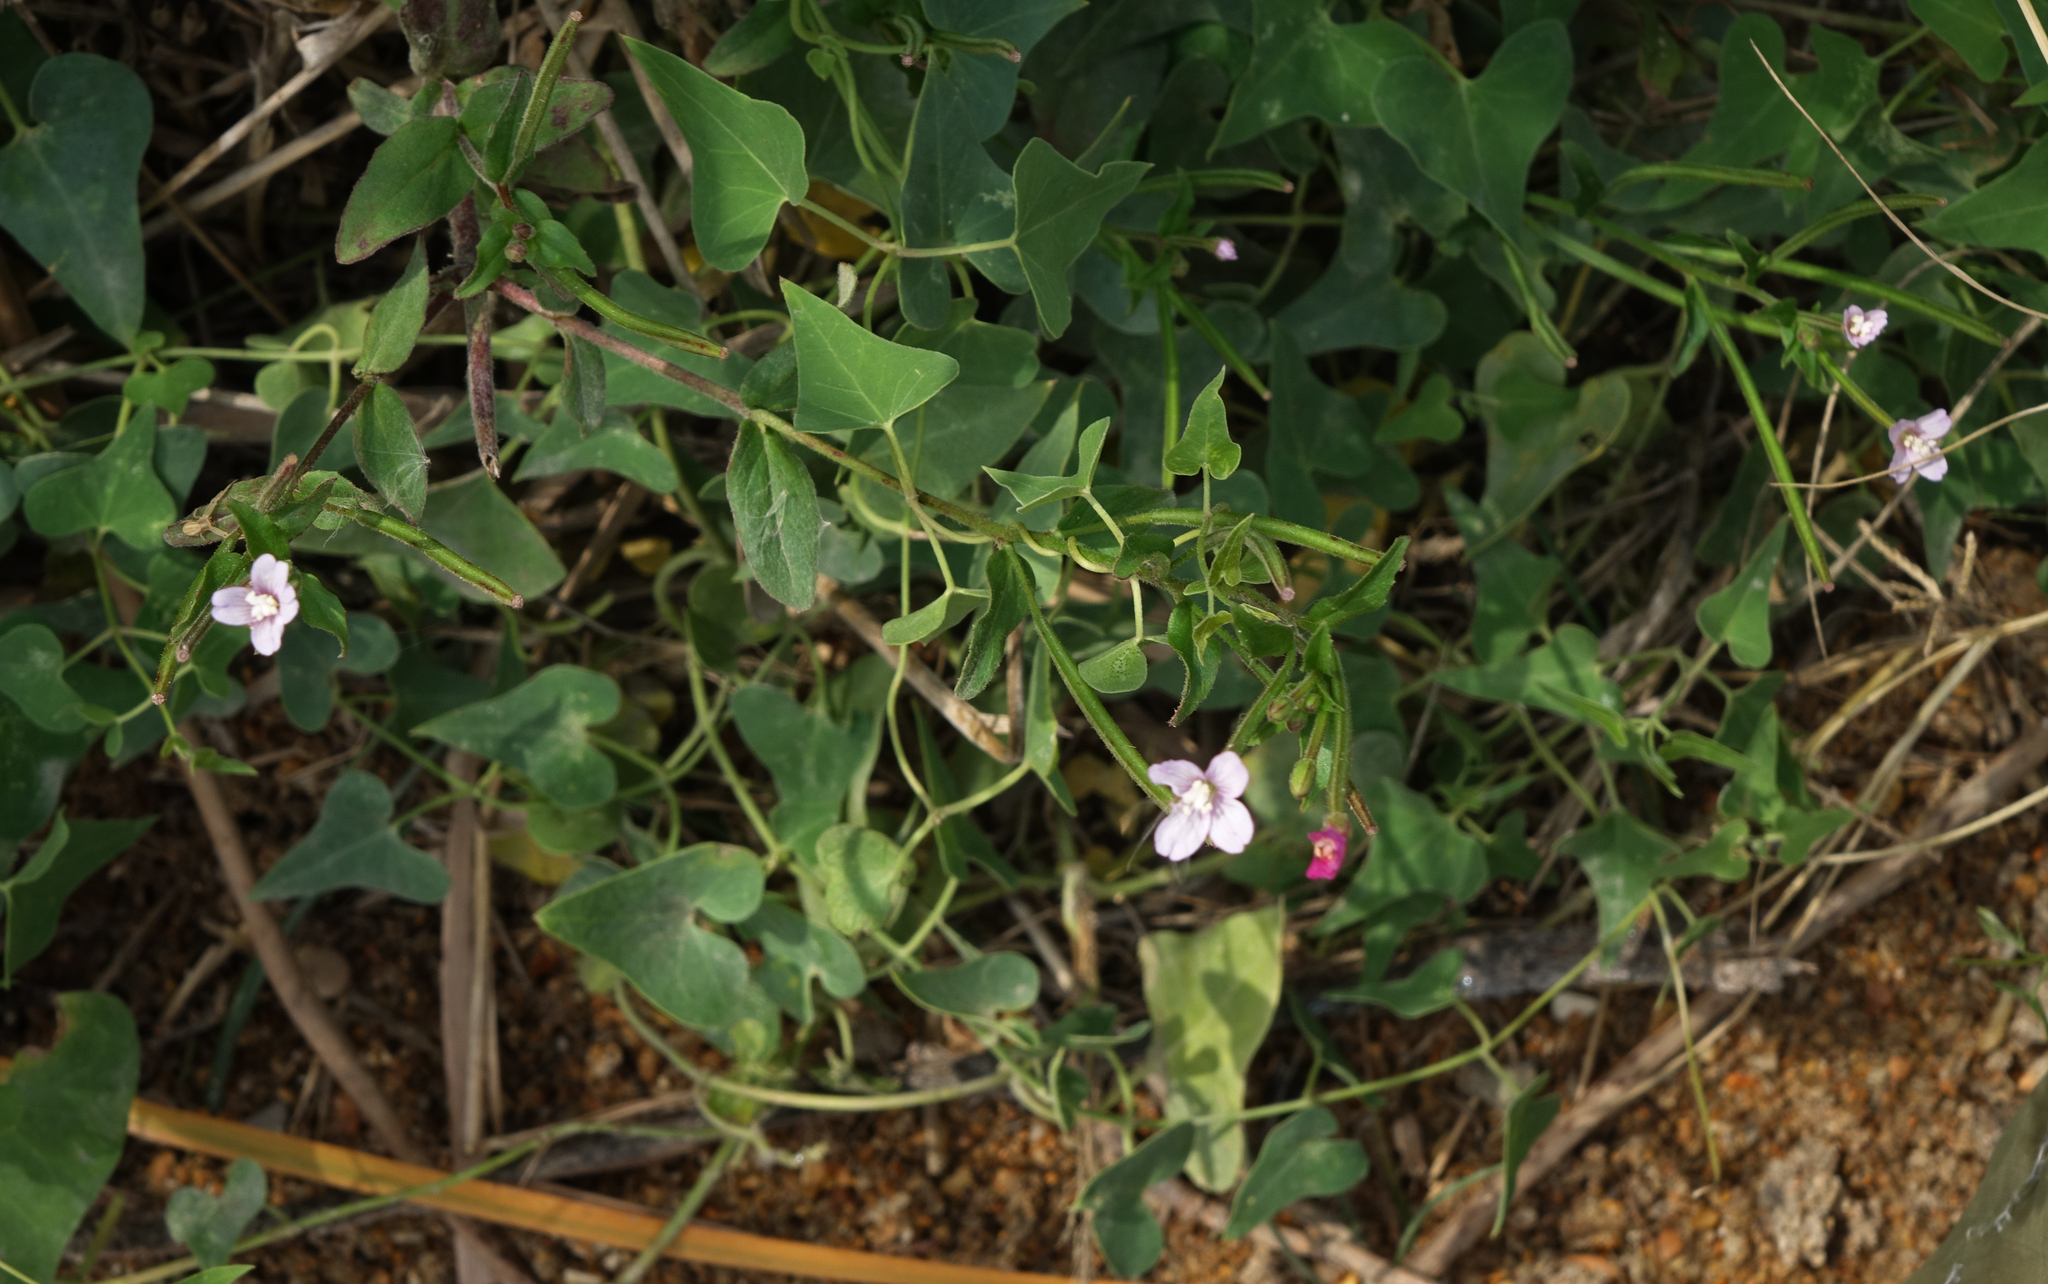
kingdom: Plantae
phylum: Tracheophyta
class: Magnoliopsida
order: Myrtales
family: Onagraceae
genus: Epilobium
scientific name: Epilobium parviflorum
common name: Hoary willowherb
